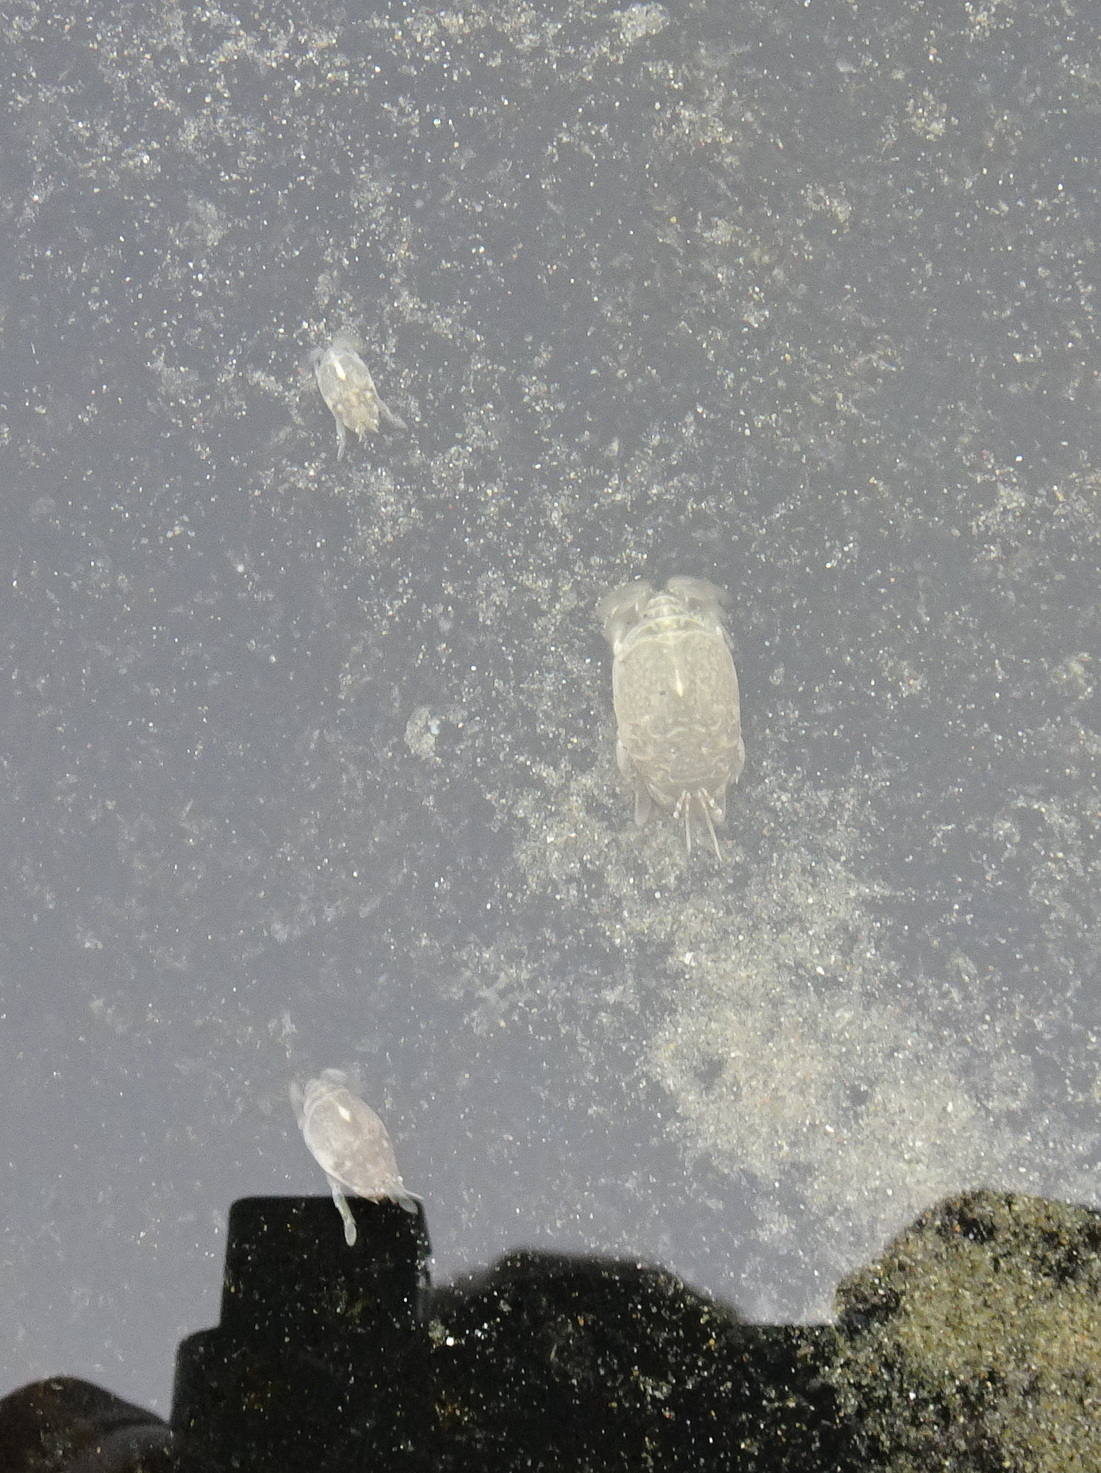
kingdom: Animalia
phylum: Arthropoda
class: Malacostraca
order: Decapoda
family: Hippidae
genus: Emerita
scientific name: Emerita analoga
